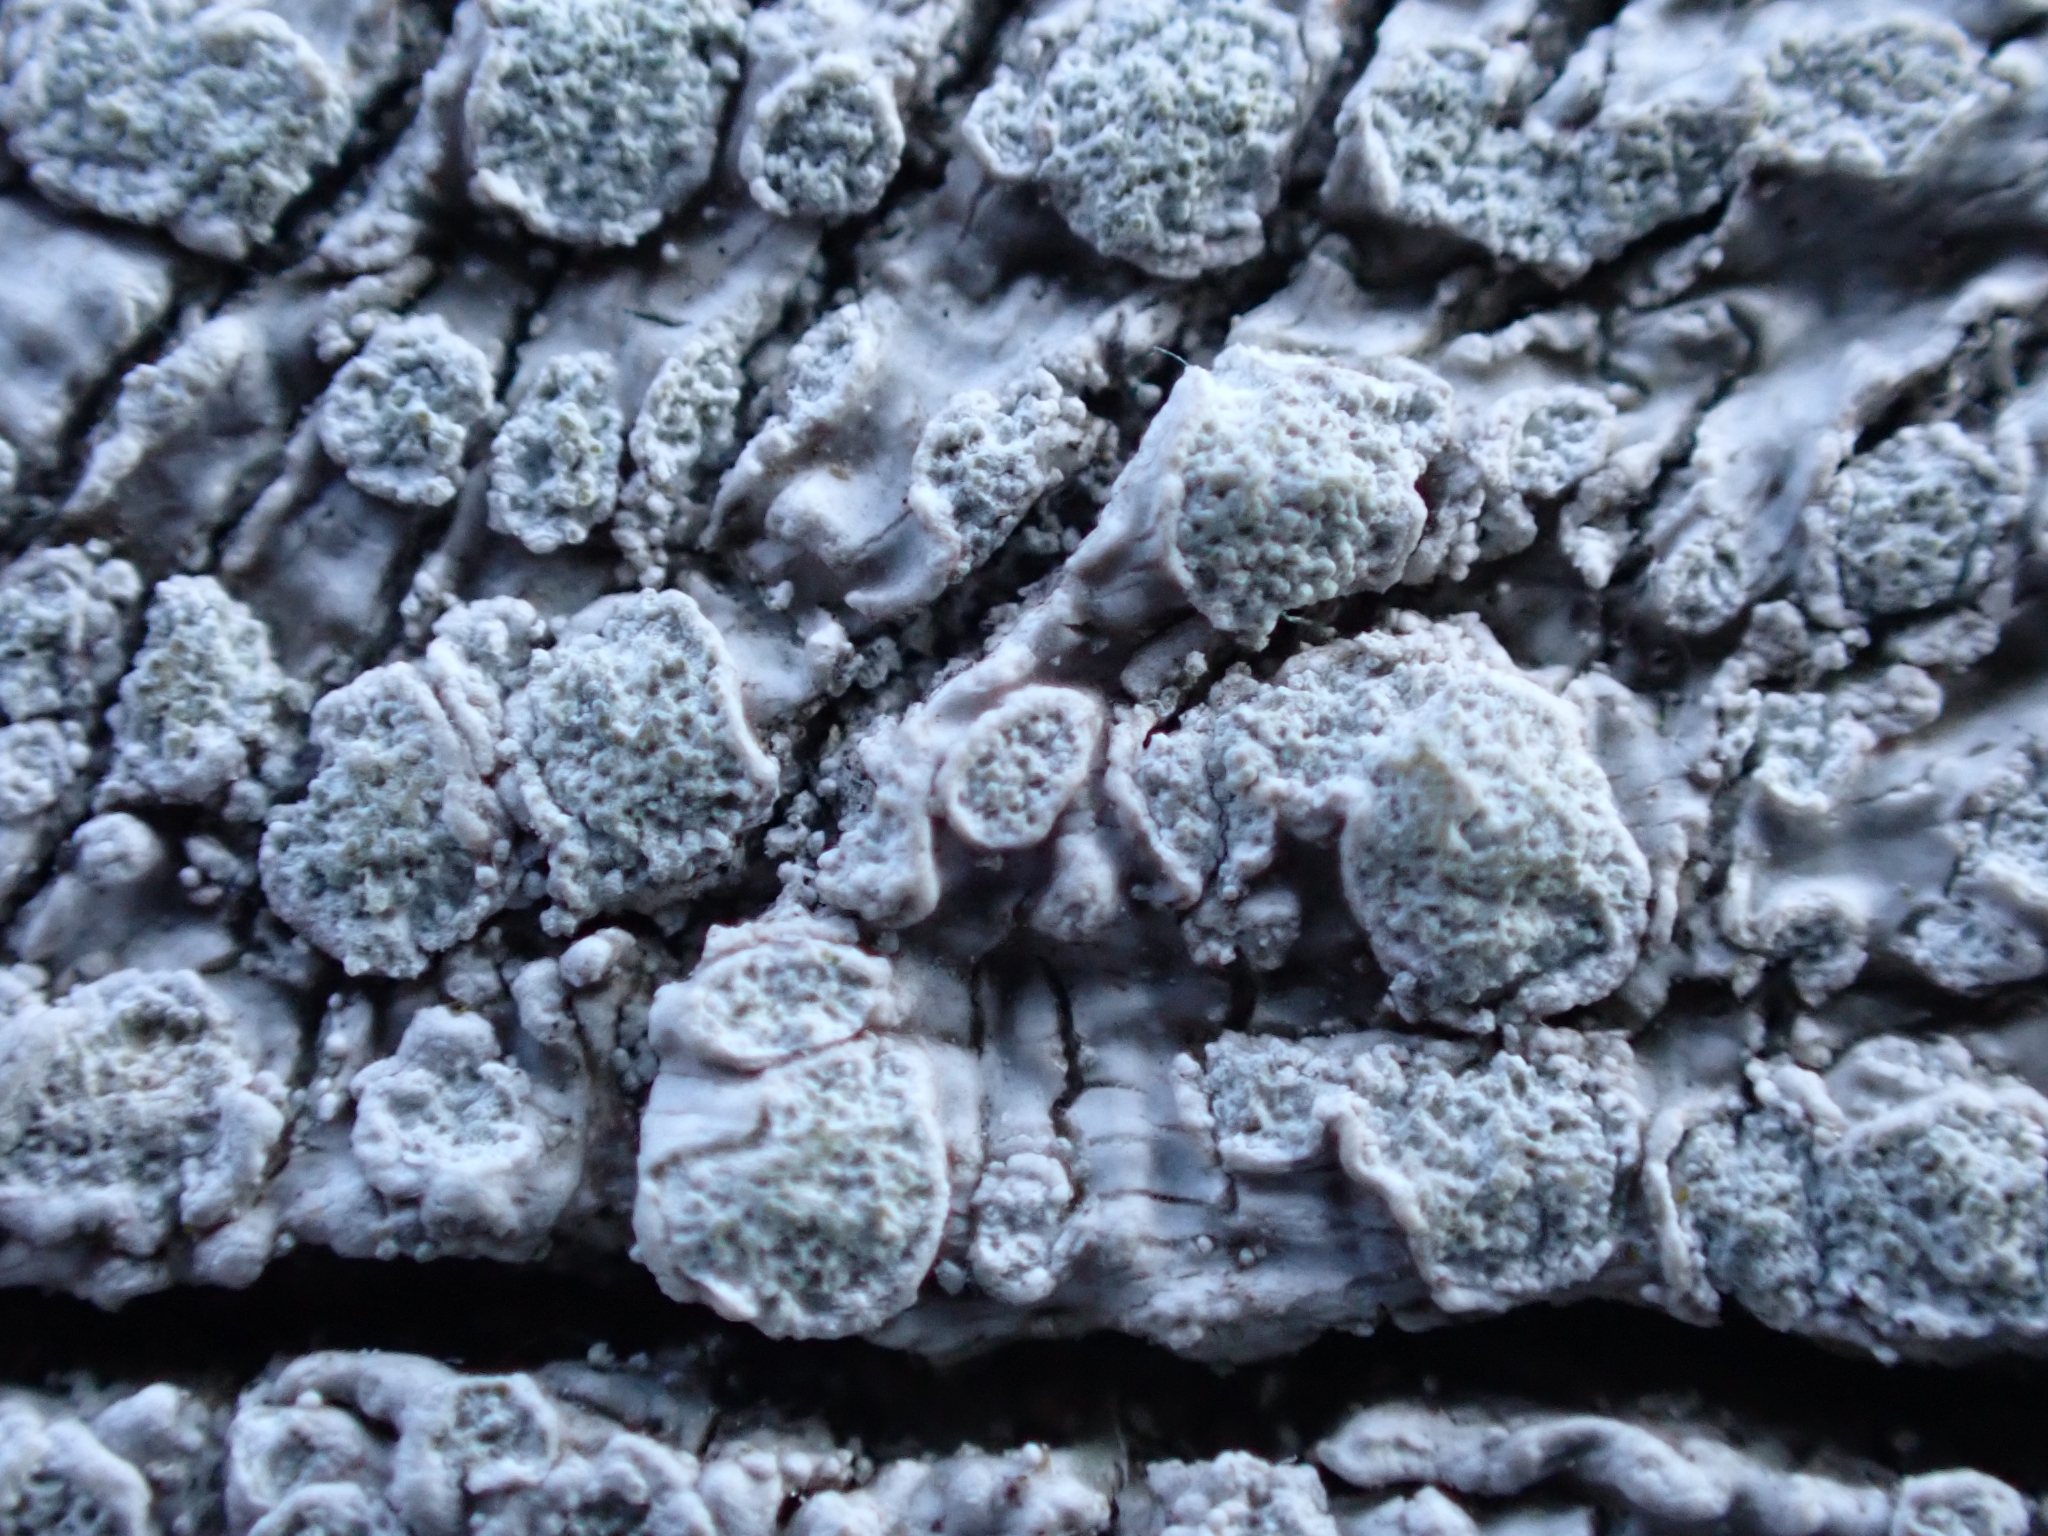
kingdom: Fungi
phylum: Ascomycota
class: Lecanoromycetes
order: Pertusariales
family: Pertusariaceae
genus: Lepra
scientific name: Lepra albescens
